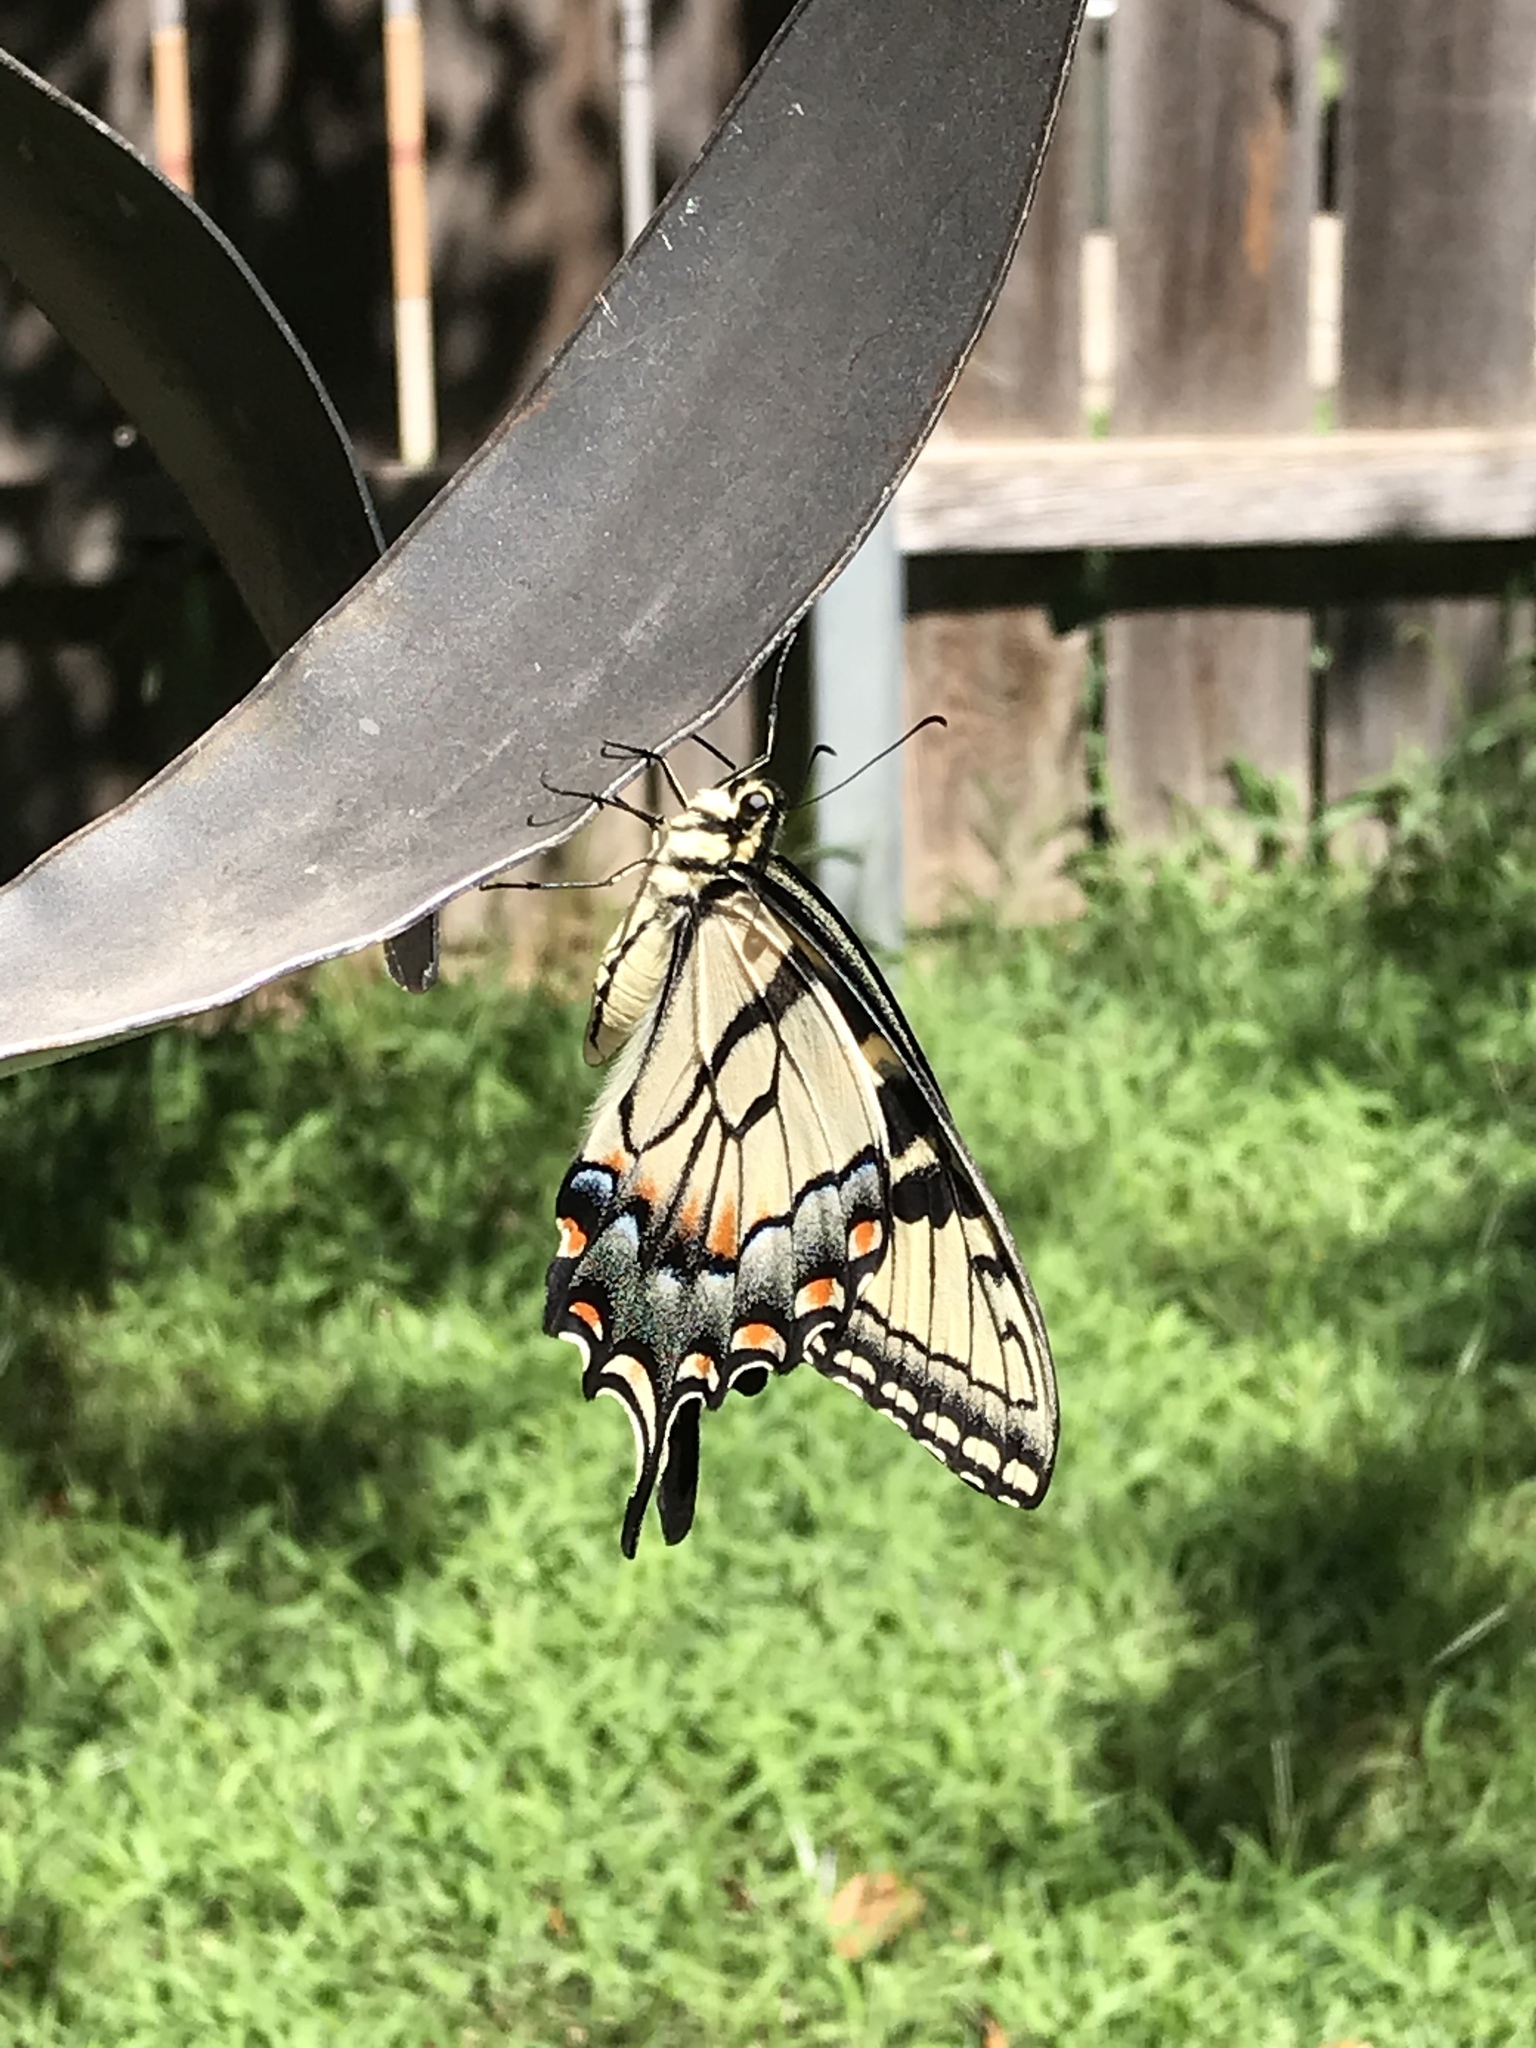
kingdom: Animalia
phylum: Arthropoda
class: Insecta
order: Lepidoptera
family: Papilionidae
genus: Papilio
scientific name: Papilio glaucus
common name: Tiger swallowtail
